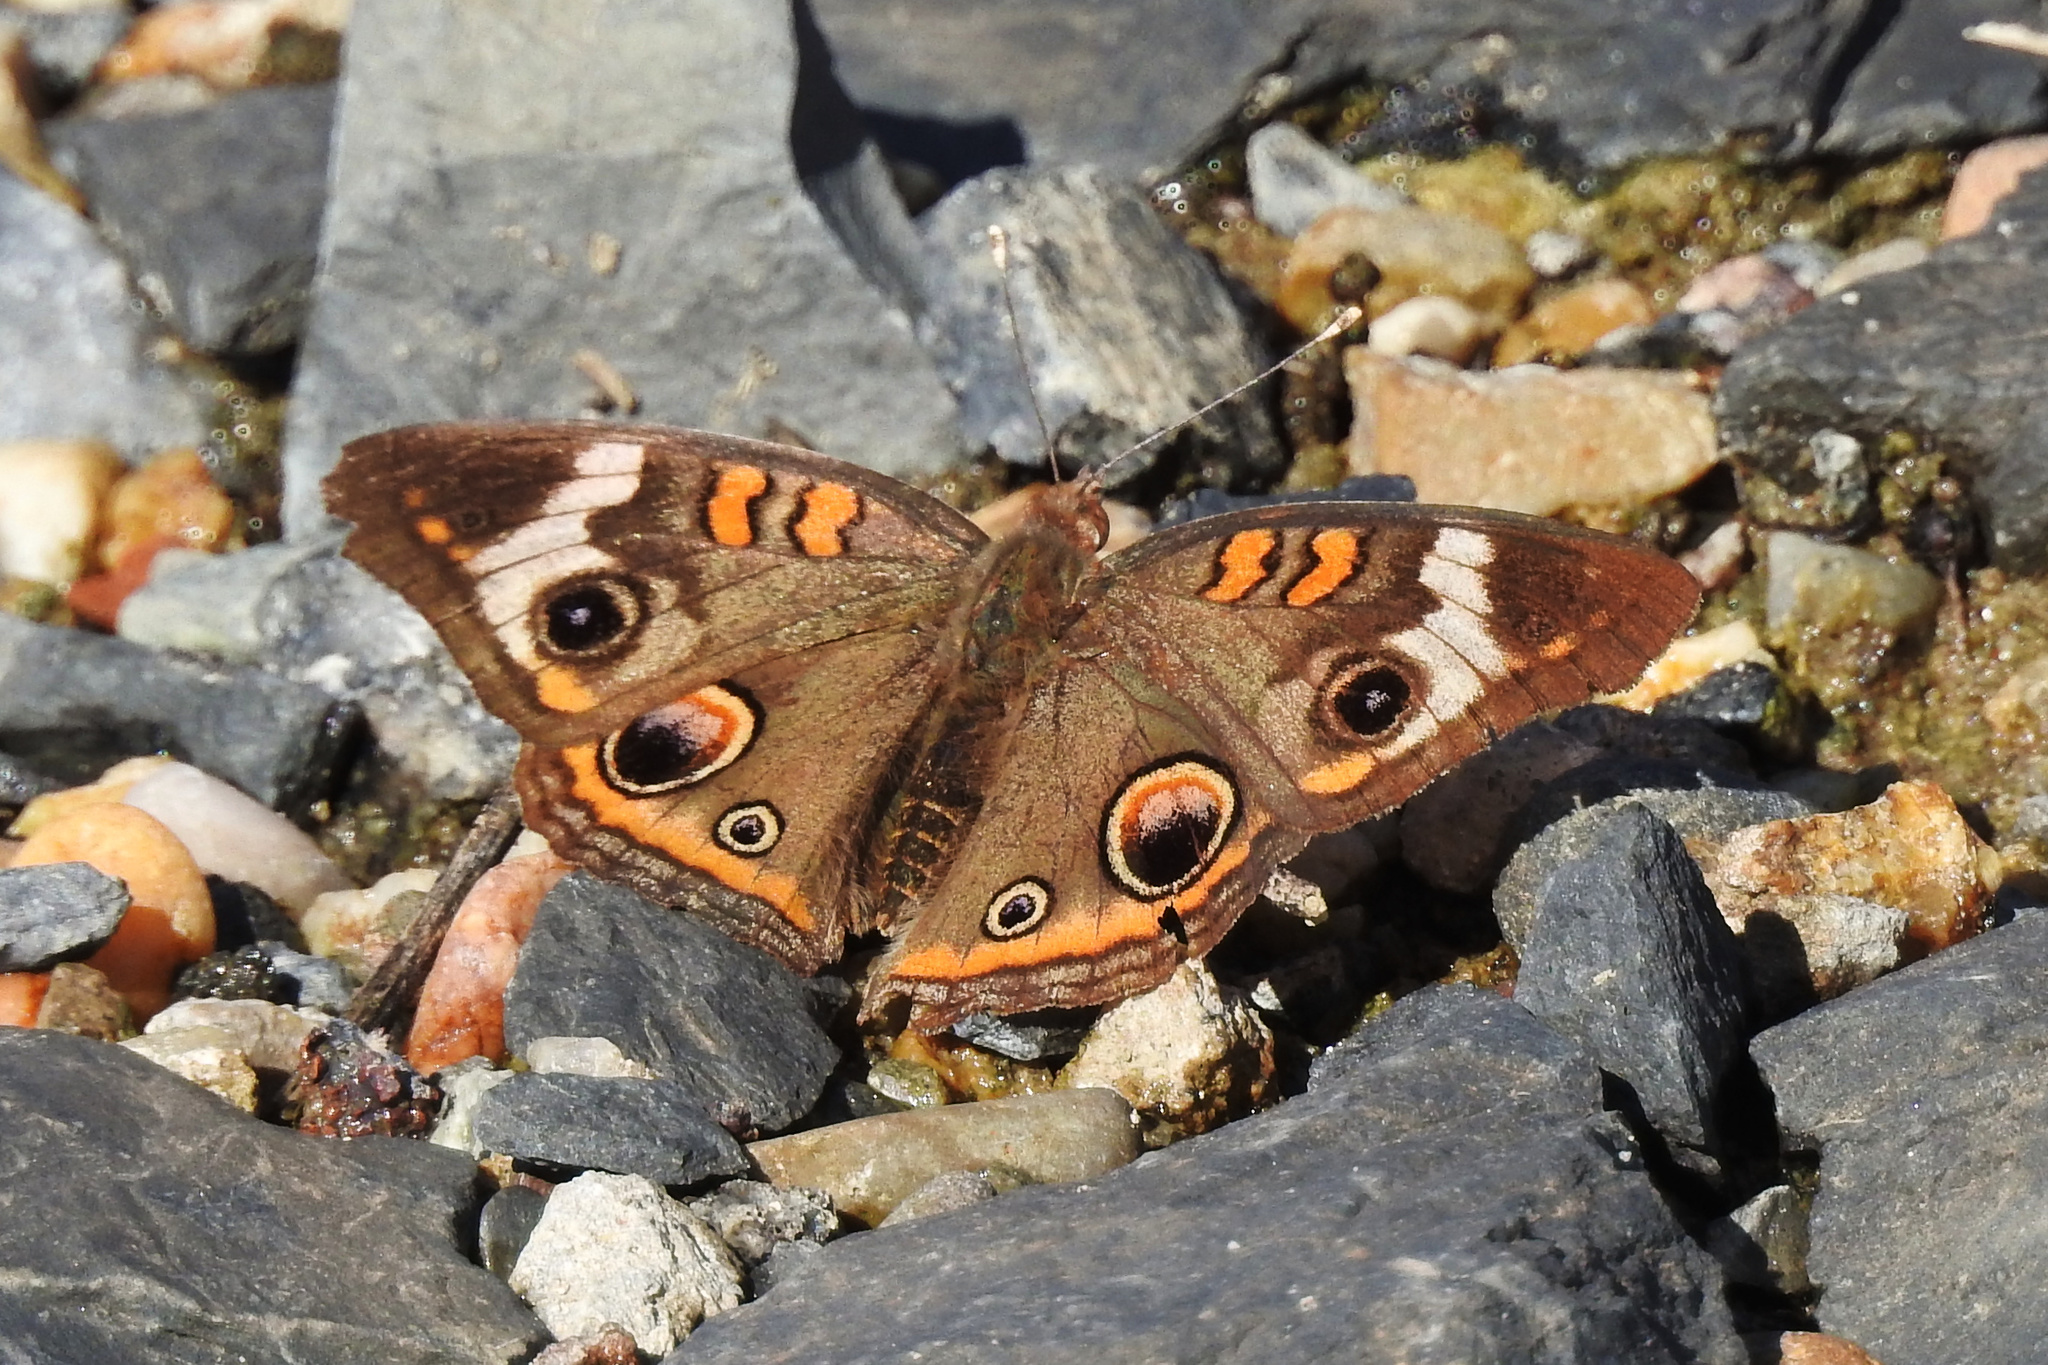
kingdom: Animalia
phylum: Arthropoda
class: Insecta
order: Lepidoptera
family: Nymphalidae
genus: Junonia
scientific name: Junonia coenia
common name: Common buckeye
